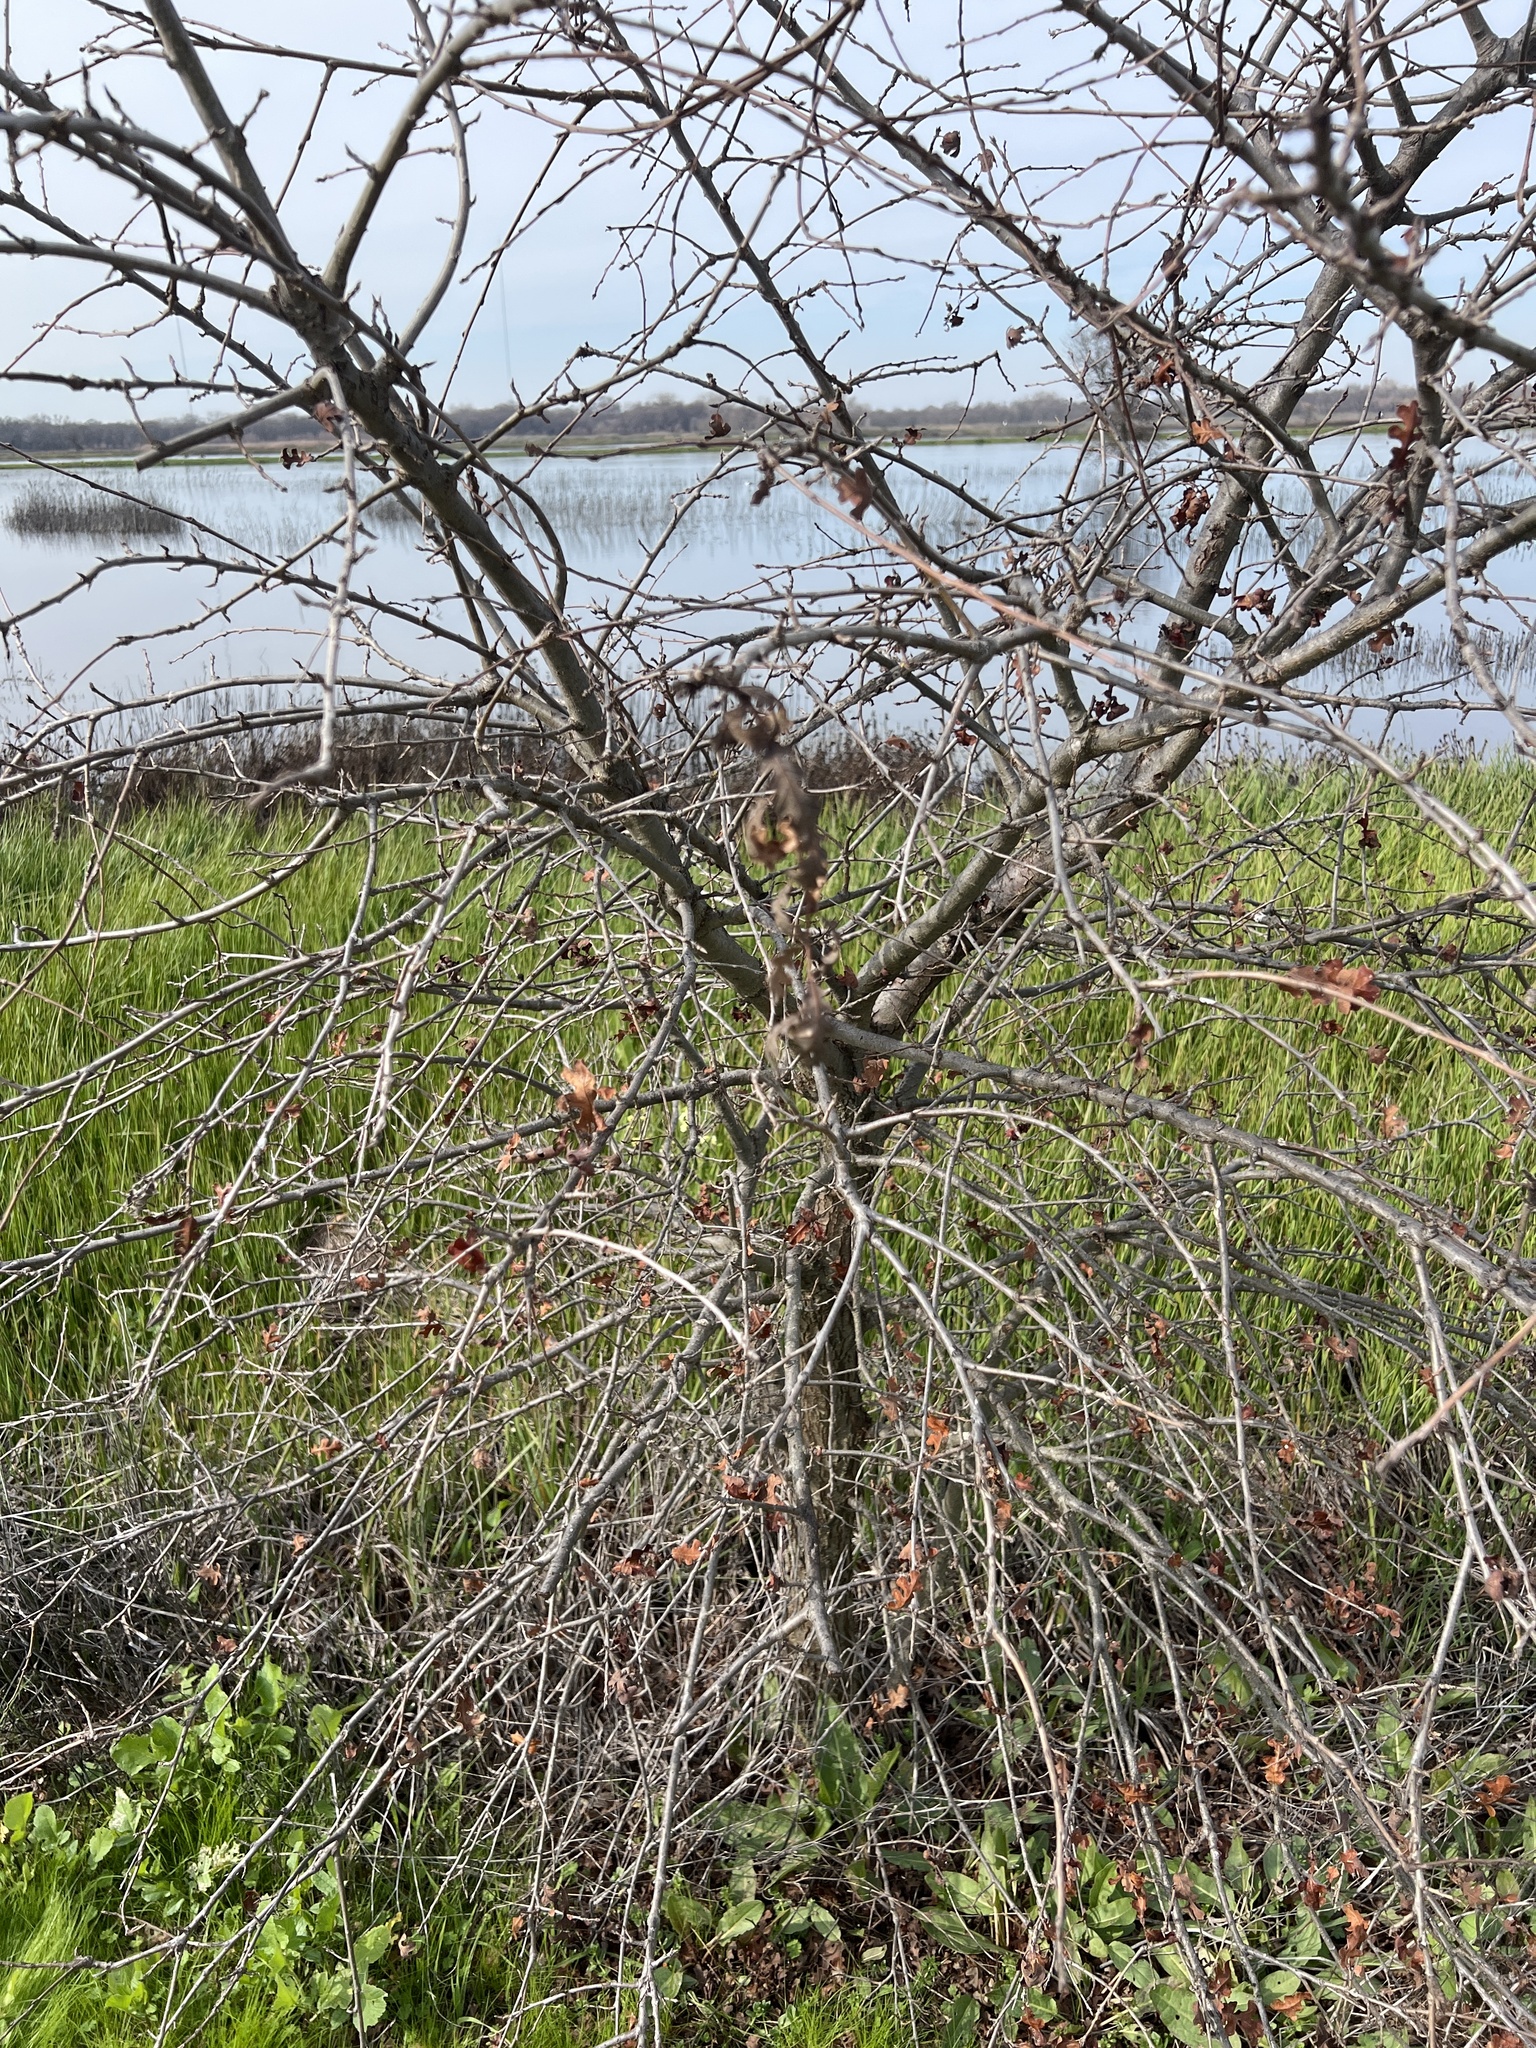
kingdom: Plantae
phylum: Tracheophyta
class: Magnoliopsida
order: Fagales
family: Fagaceae
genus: Quercus
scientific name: Quercus lobata
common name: Valley oak
